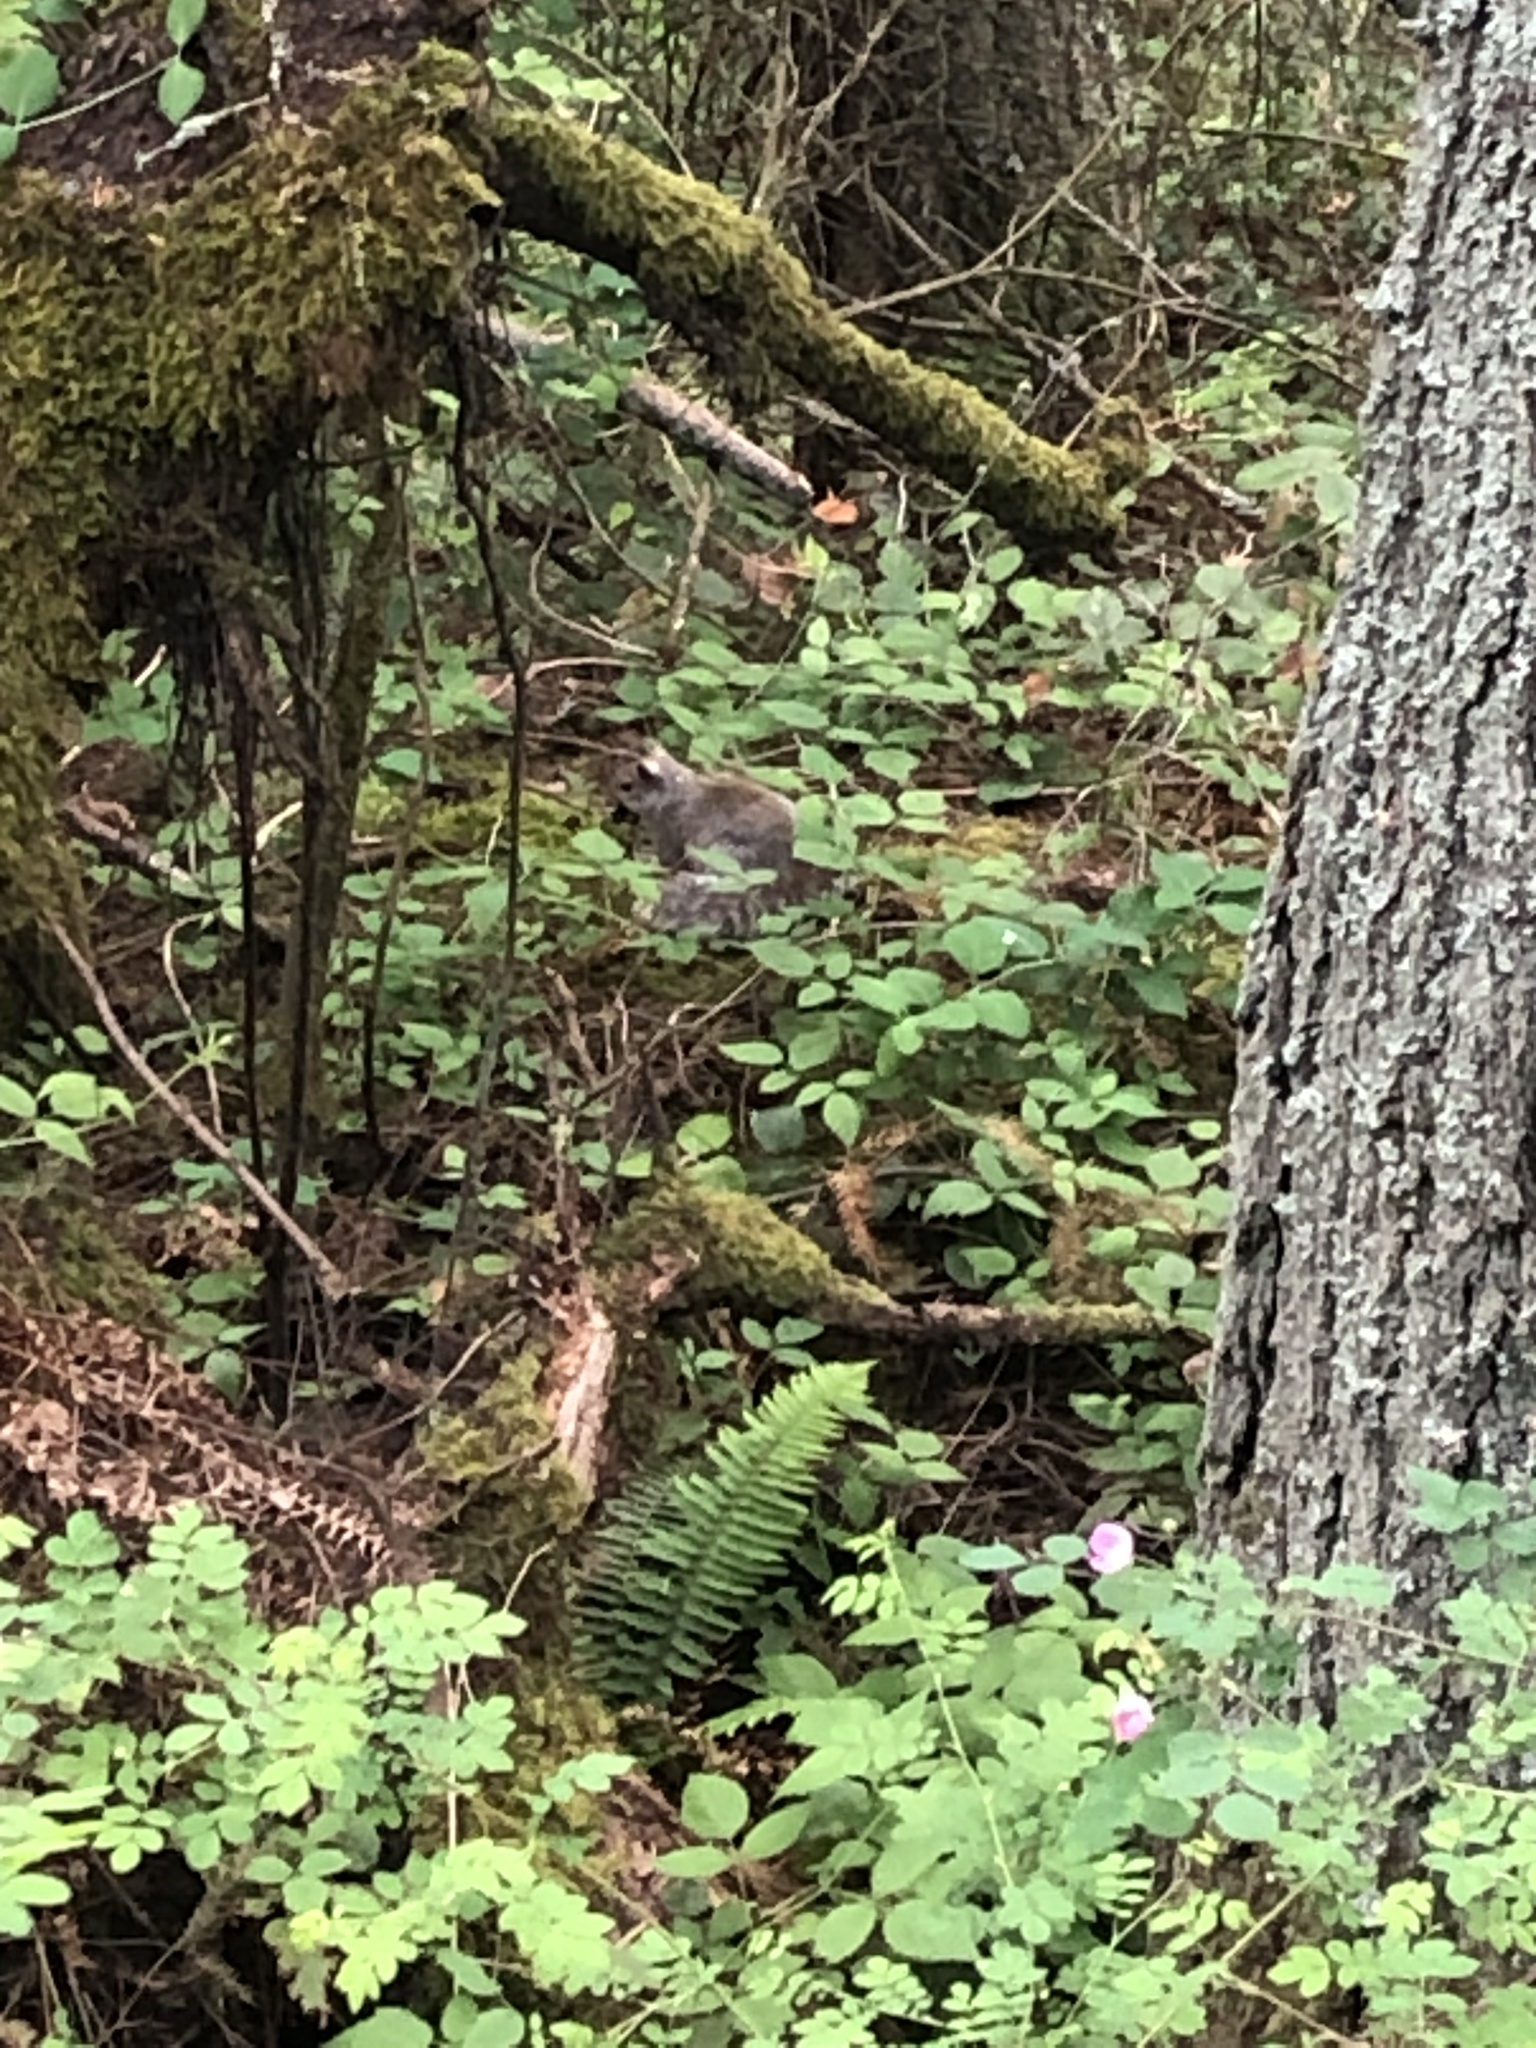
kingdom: Animalia
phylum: Chordata
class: Mammalia
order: Rodentia
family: Sciuridae
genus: Sciurus
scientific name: Sciurus carolinensis
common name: Eastern gray squirrel
